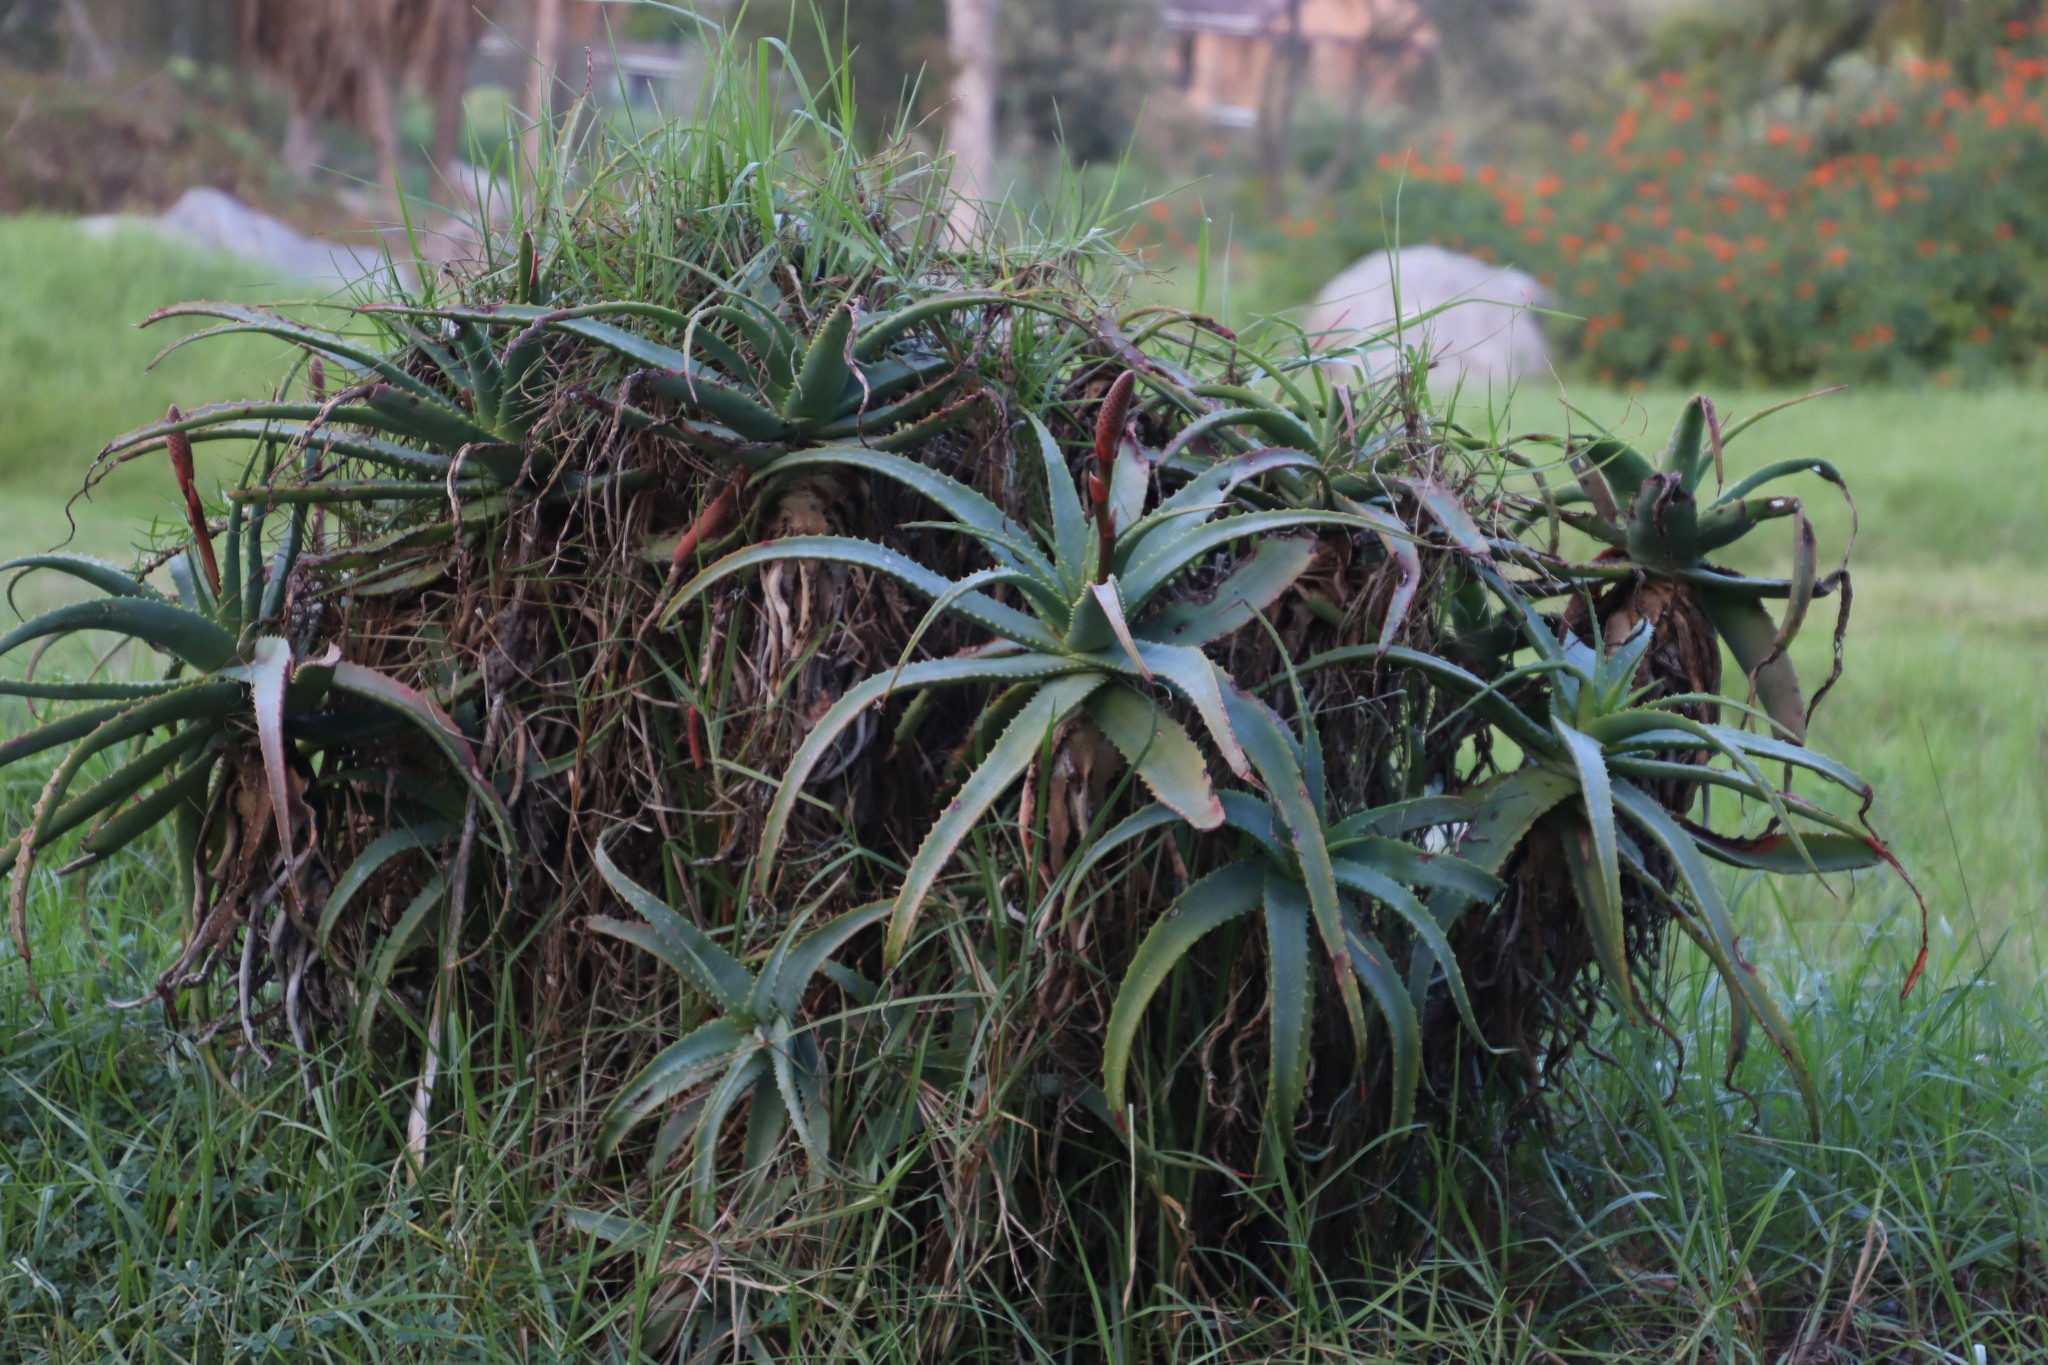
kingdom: Plantae
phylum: Tracheophyta
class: Liliopsida
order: Asparagales
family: Asphodelaceae
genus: Aloe
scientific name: Aloe arborescens
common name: Candelabra aloe
